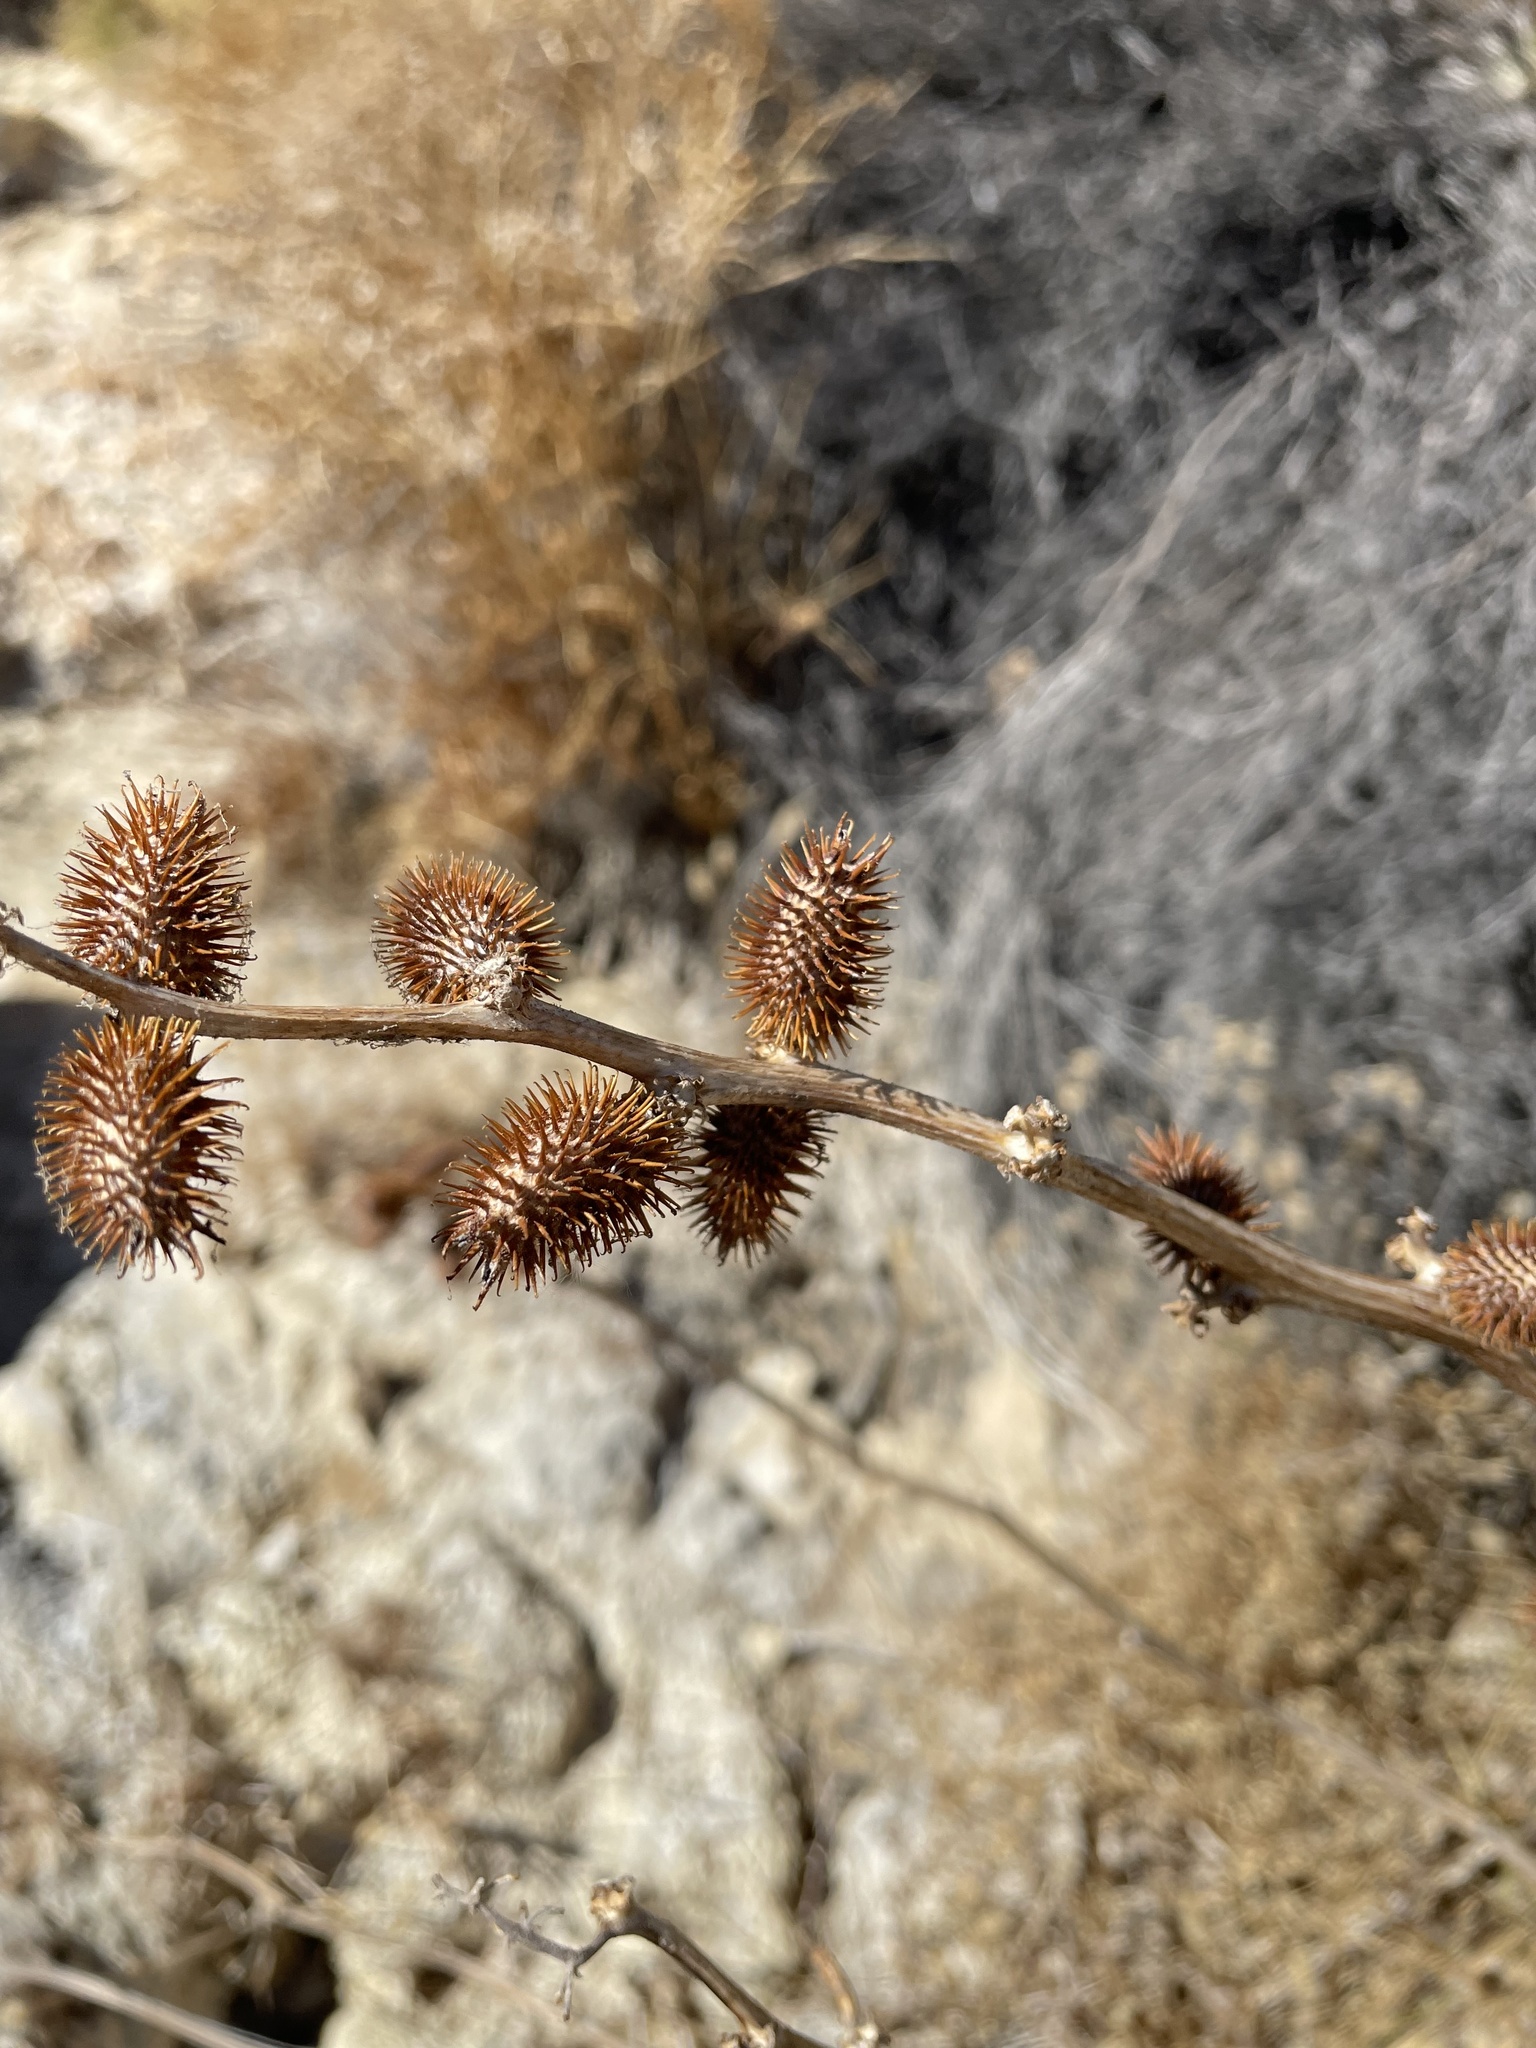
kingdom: Plantae
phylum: Tracheophyta
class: Magnoliopsida
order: Asterales
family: Asteraceae
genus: Xanthium
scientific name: Xanthium strumarium
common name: Rough cocklebur
